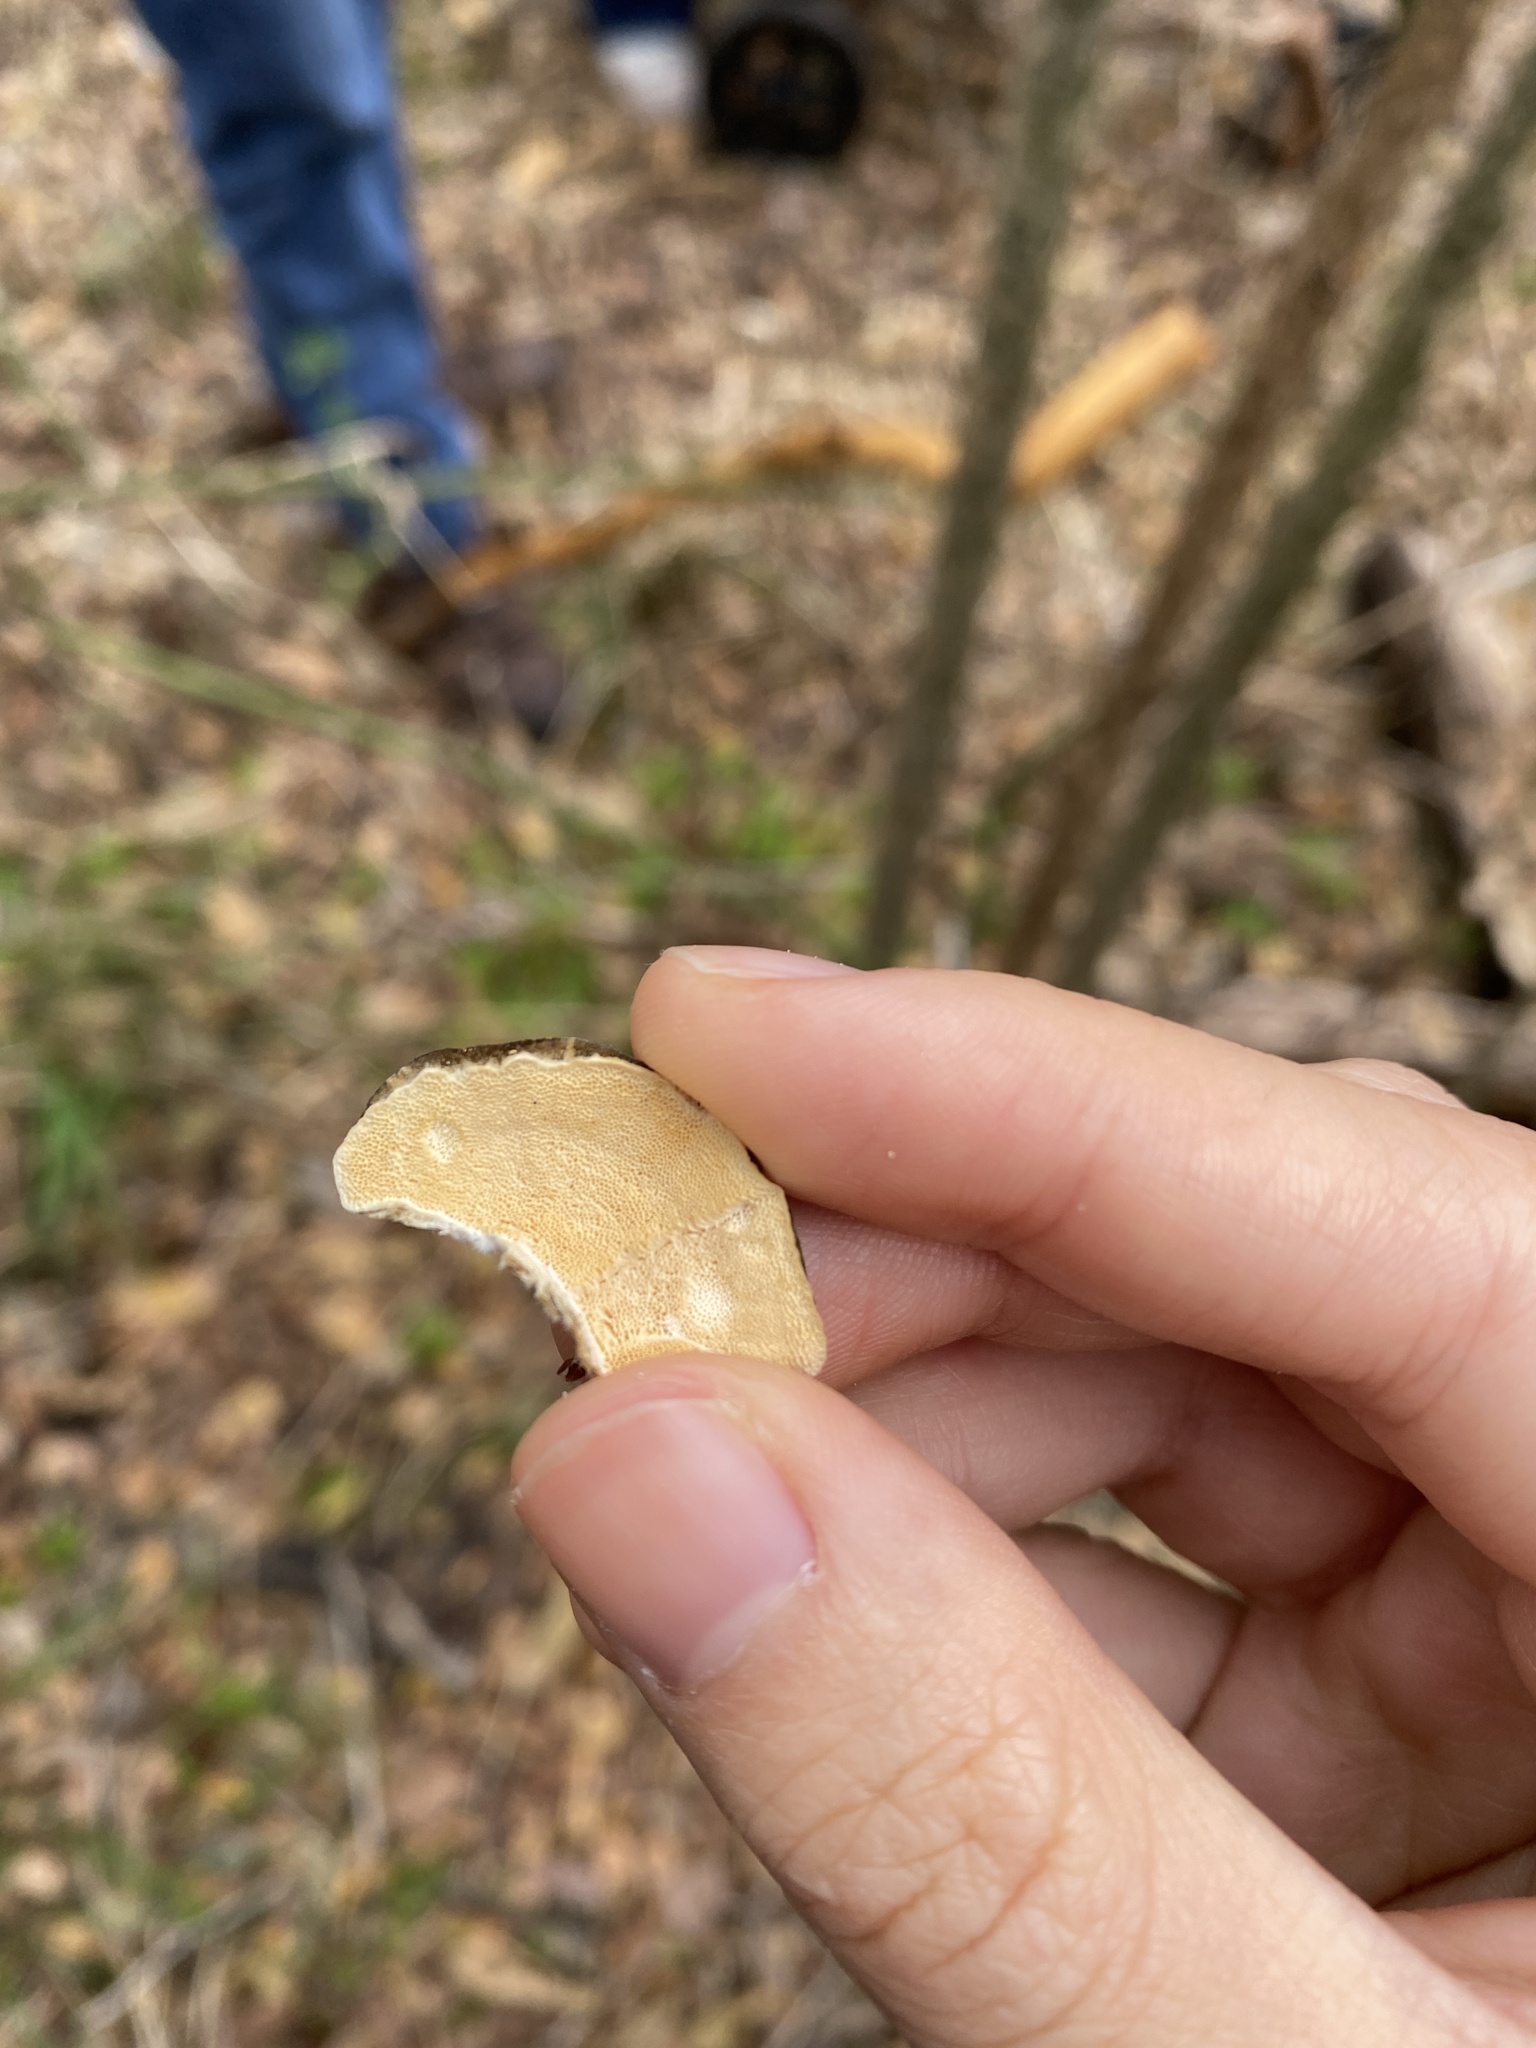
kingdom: Fungi
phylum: Basidiomycota
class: Agaricomycetes
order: Polyporales
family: Polyporaceae
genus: Trametes
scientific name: Trametes versicolor
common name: Turkeytail
